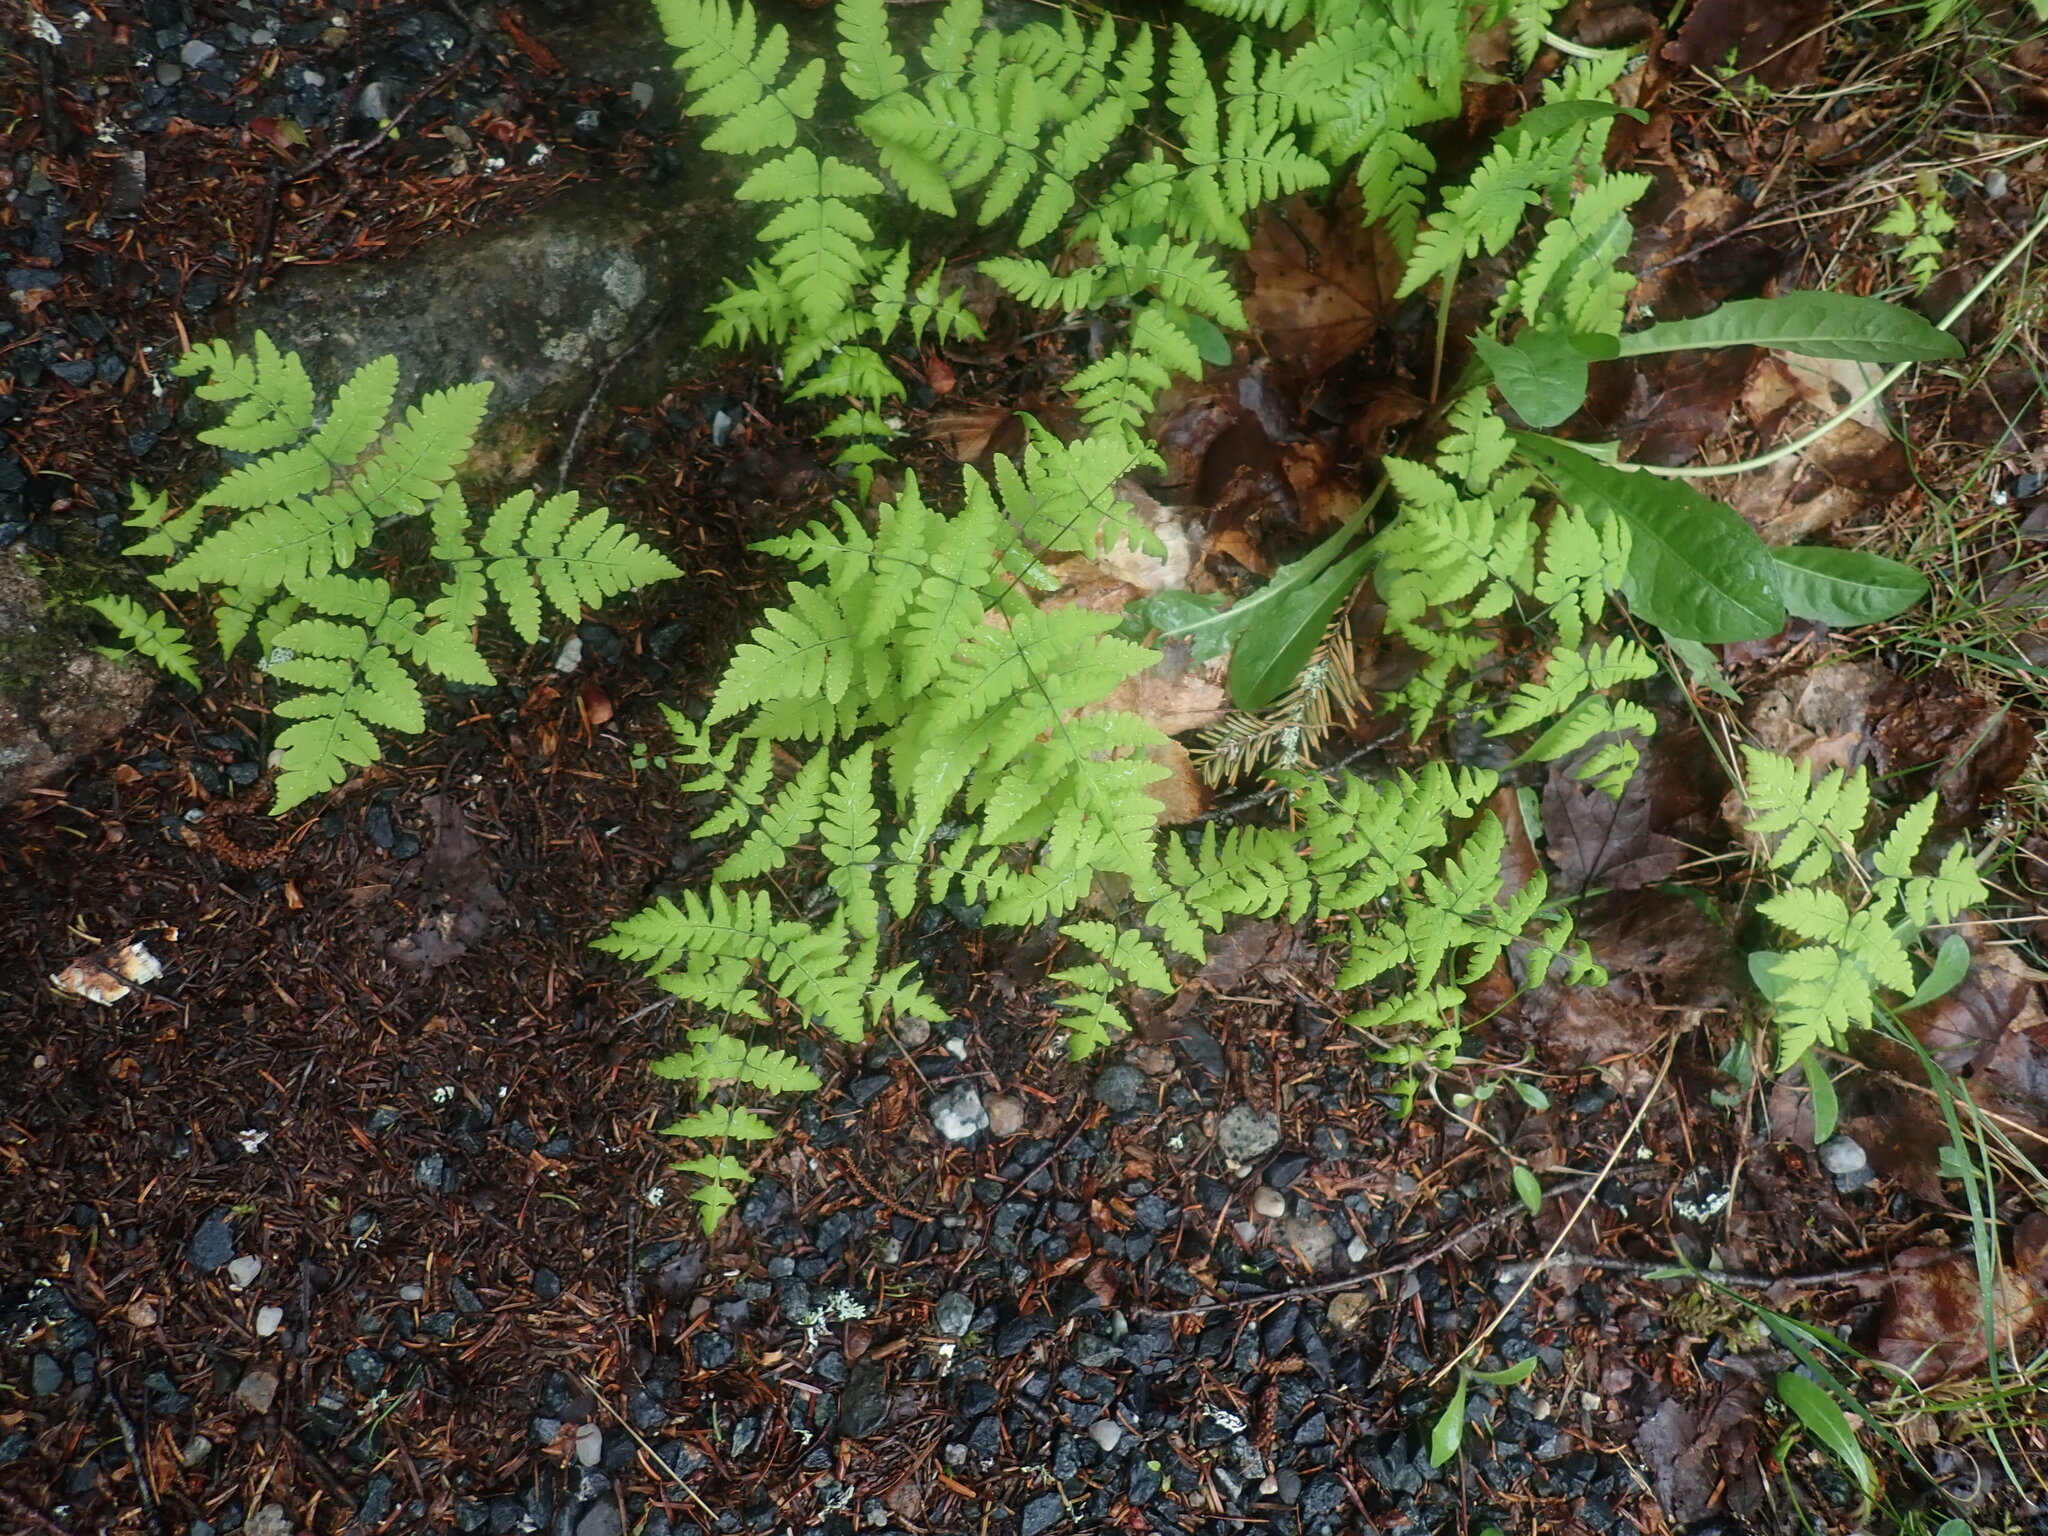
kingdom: Plantae
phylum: Tracheophyta
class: Polypodiopsida
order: Polypodiales
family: Cystopteridaceae
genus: Gymnocarpium
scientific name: Gymnocarpium dryopteris
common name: Oak fern
